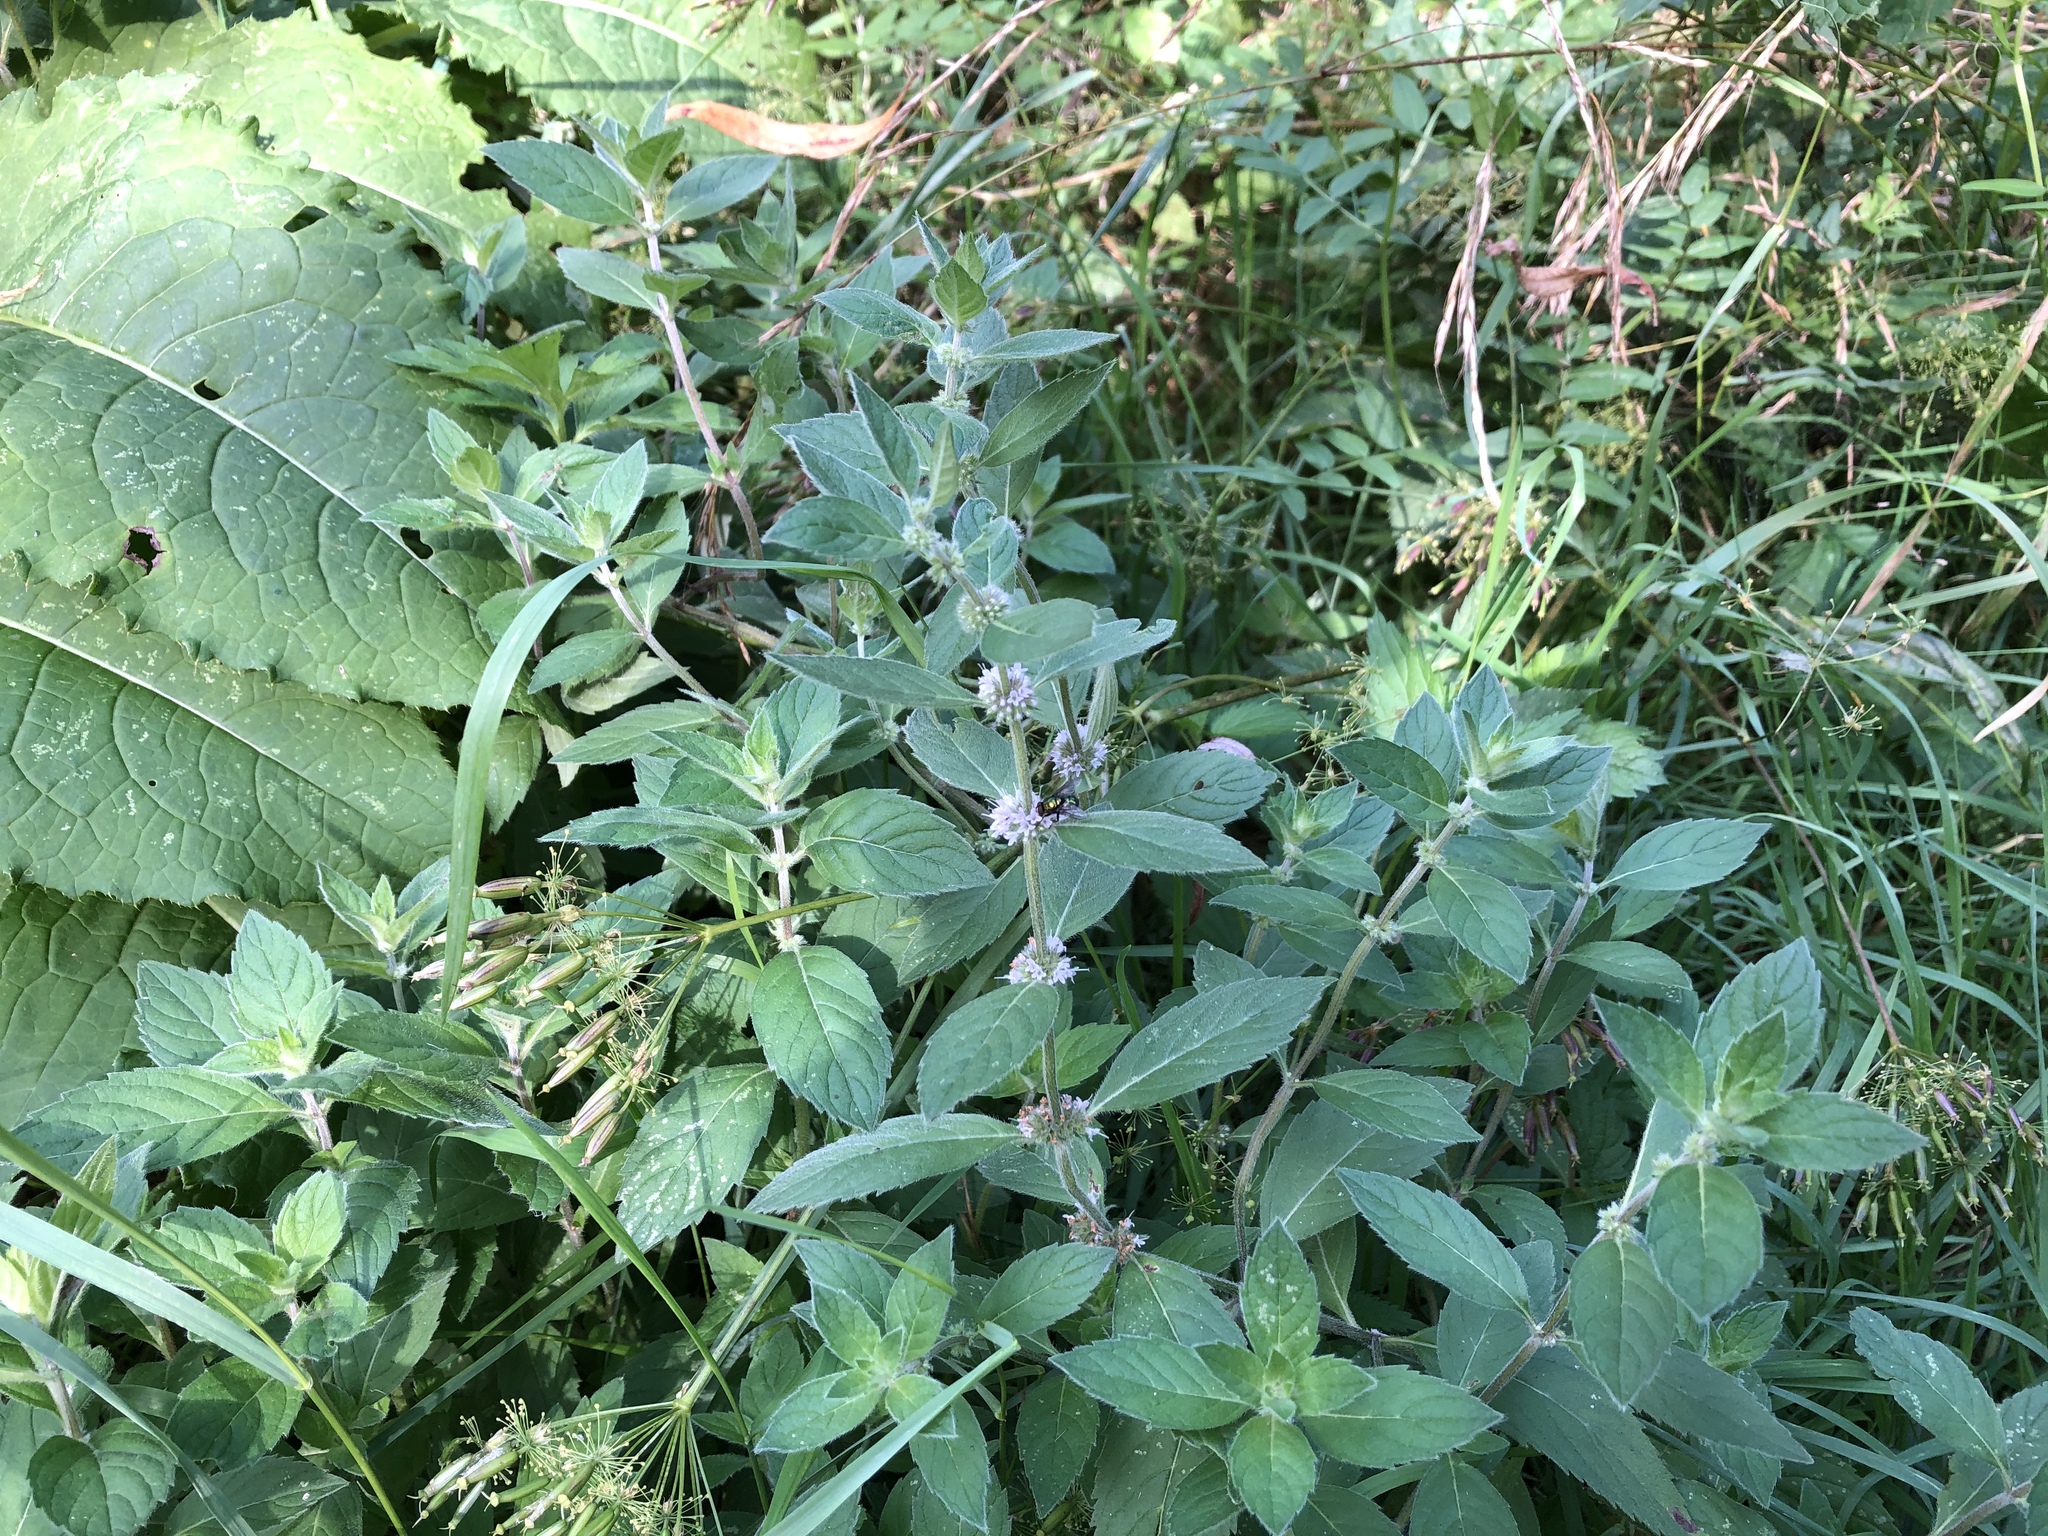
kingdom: Plantae
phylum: Tracheophyta
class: Magnoliopsida
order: Lamiales
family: Lamiaceae
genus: Mentha
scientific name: Mentha arvensis
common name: Corn mint
